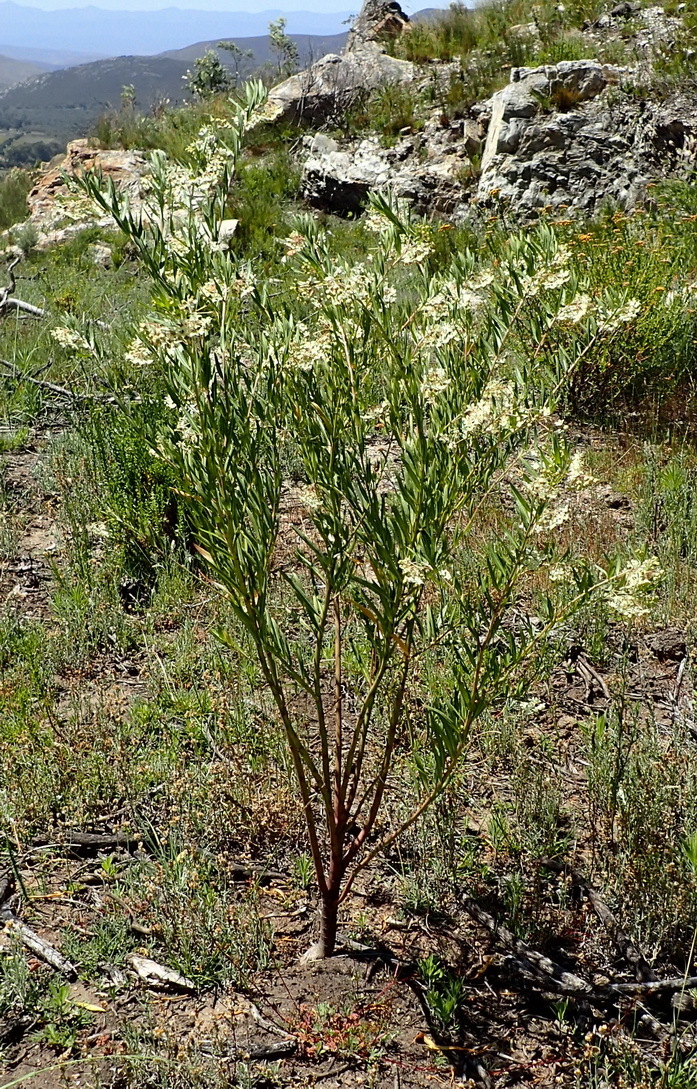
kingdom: Plantae
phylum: Tracheophyta
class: Magnoliopsida
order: Gentianales
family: Apocynaceae
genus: Gomphocarpus
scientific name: Gomphocarpus fruticosus
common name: Milkweed
